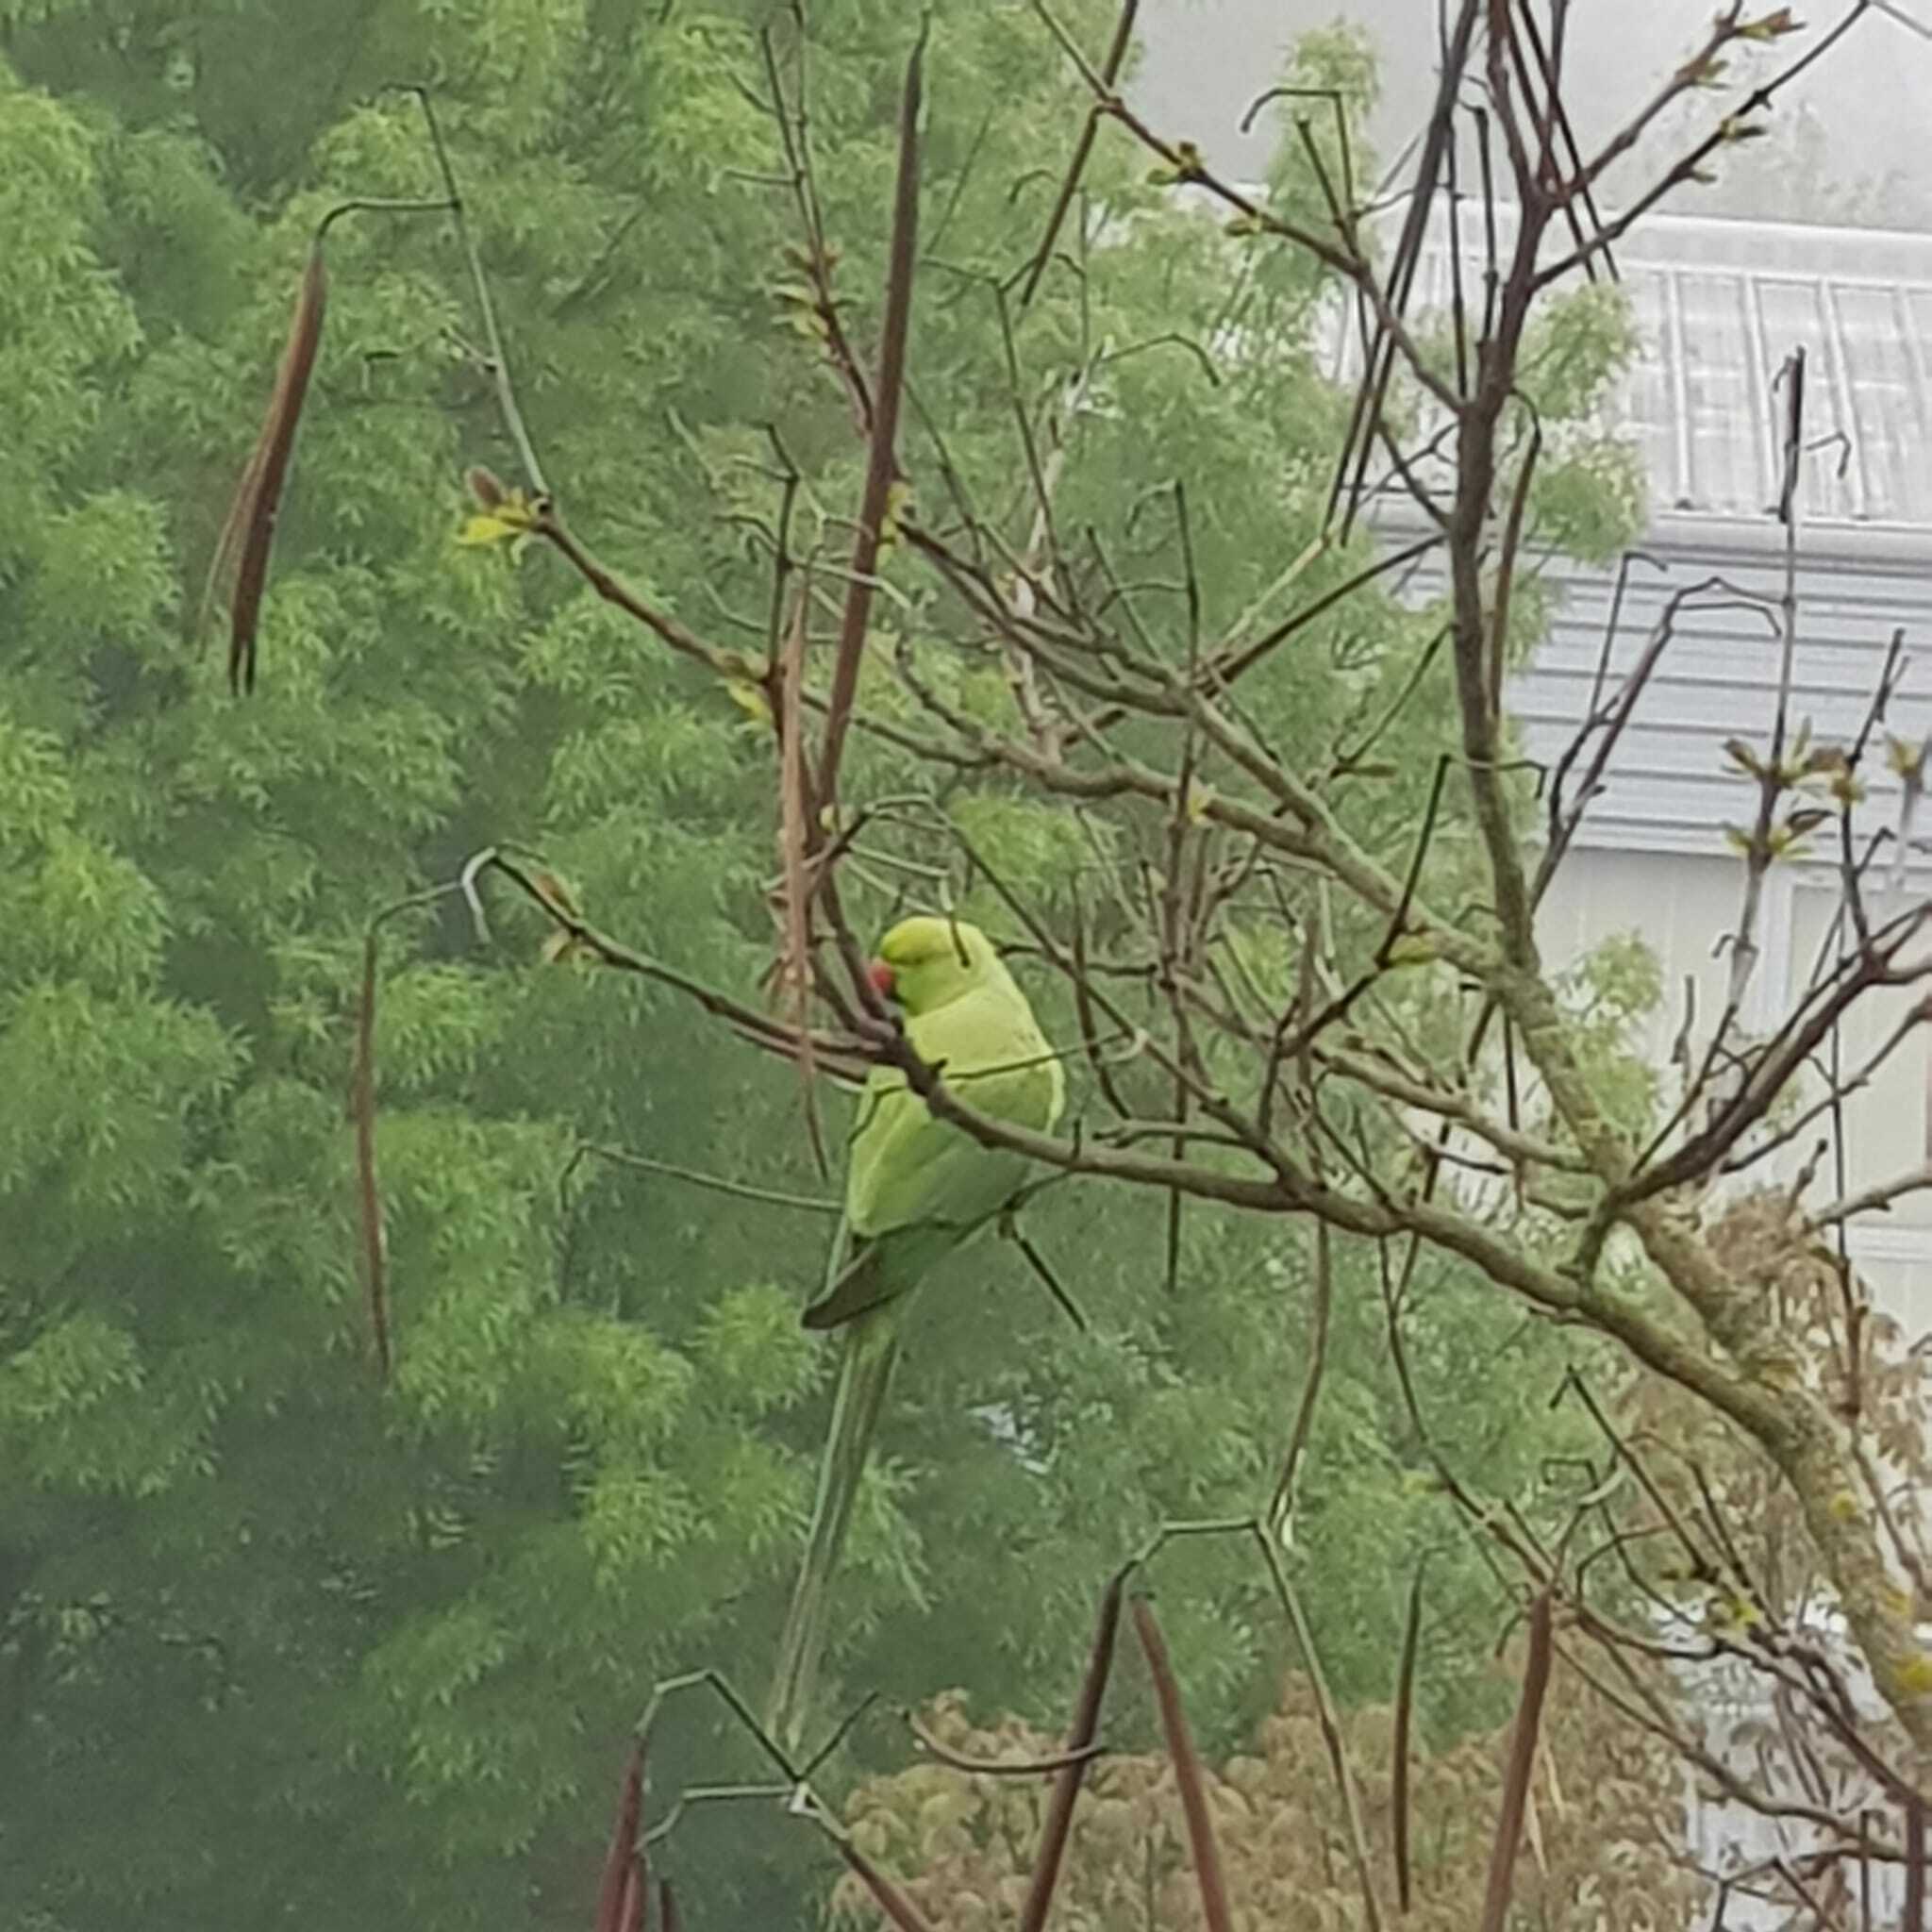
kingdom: Animalia
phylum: Chordata
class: Aves
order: Psittaciformes
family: Psittacidae
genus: Psittacula
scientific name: Psittacula krameri
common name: Rose-ringed parakeet
